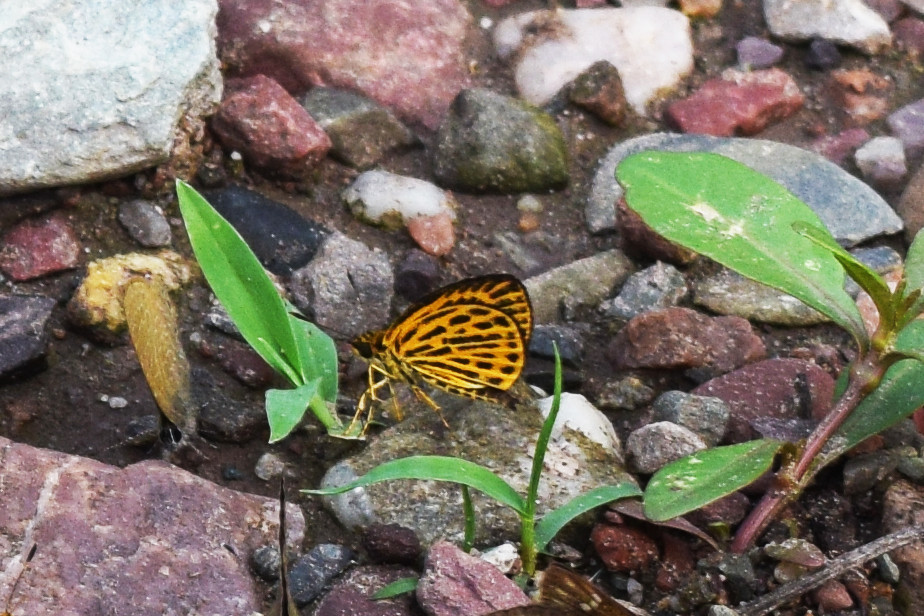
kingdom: Animalia
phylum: Arthropoda
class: Insecta
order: Lepidoptera
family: Hesperiidae
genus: Ampittia
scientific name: Ampittia subvittatus
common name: Tiger hopper
